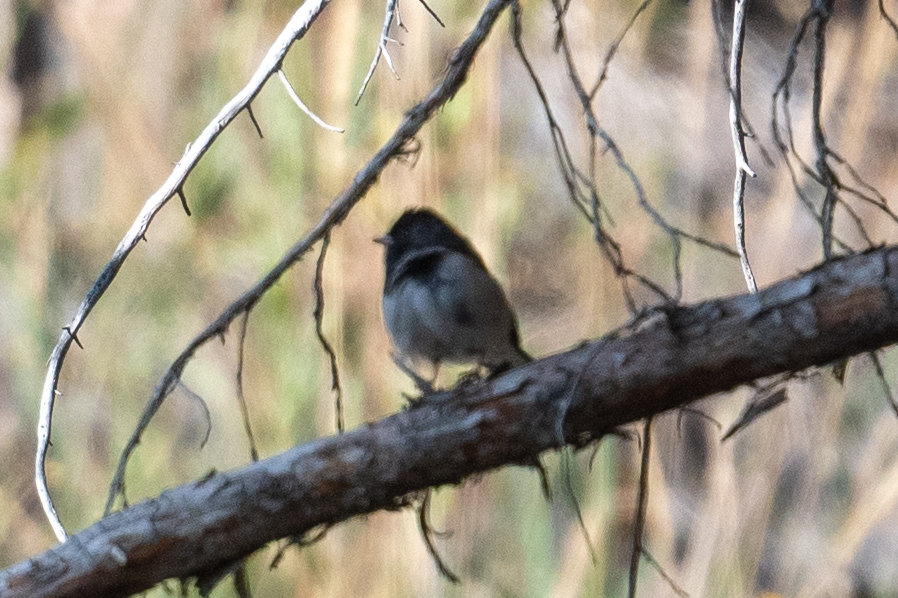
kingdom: Animalia
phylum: Chordata
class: Aves
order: Passeriformes
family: Passerellidae
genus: Junco
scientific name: Junco hyemalis
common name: Dark-eyed junco
